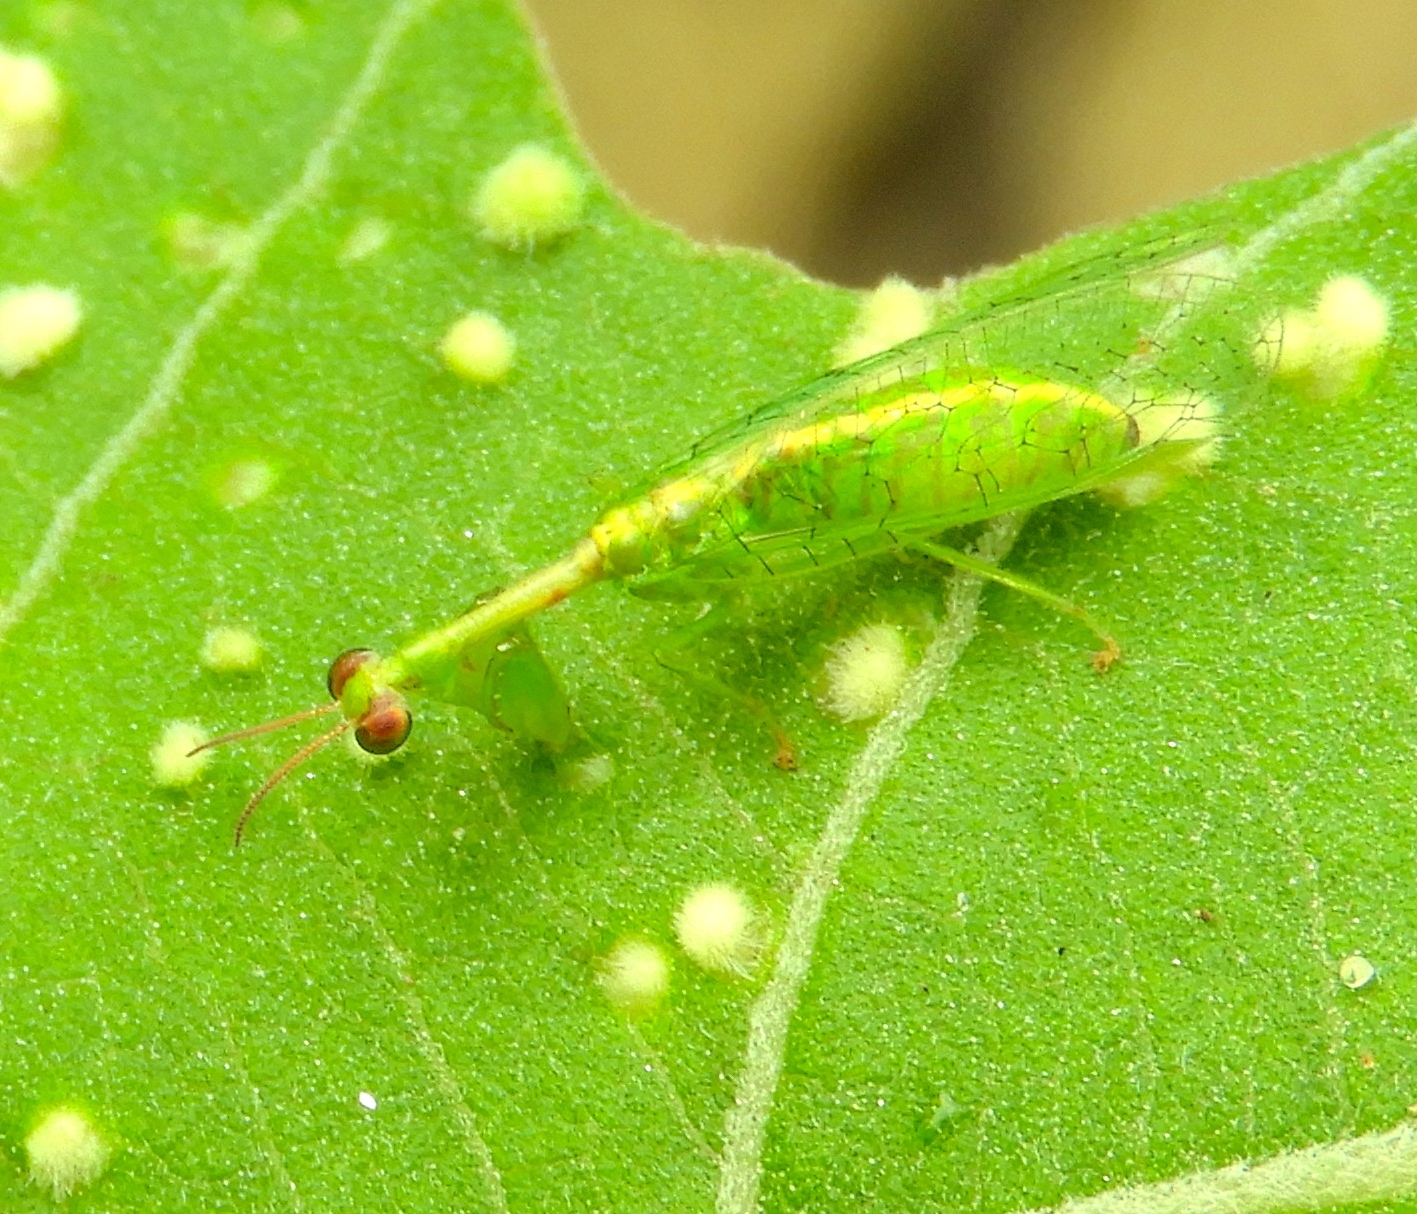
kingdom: Animalia
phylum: Arthropoda
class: Insecta
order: Neuroptera
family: Mantispidae
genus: Zeugomantispa
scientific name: Zeugomantispa
